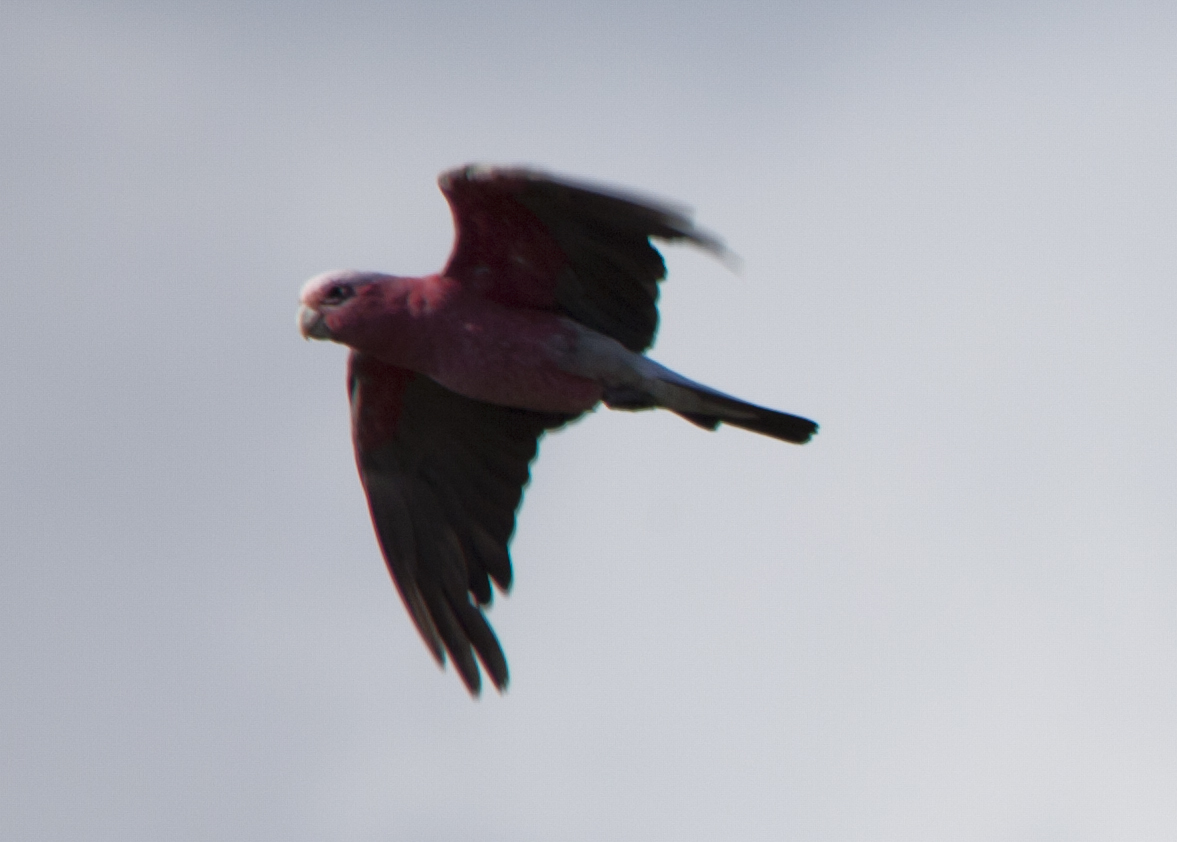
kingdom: Animalia
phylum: Chordata
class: Aves
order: Psittaciformes
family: Psittacidae
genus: Eolophus
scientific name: Eolophus roseicapilla
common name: Galah
